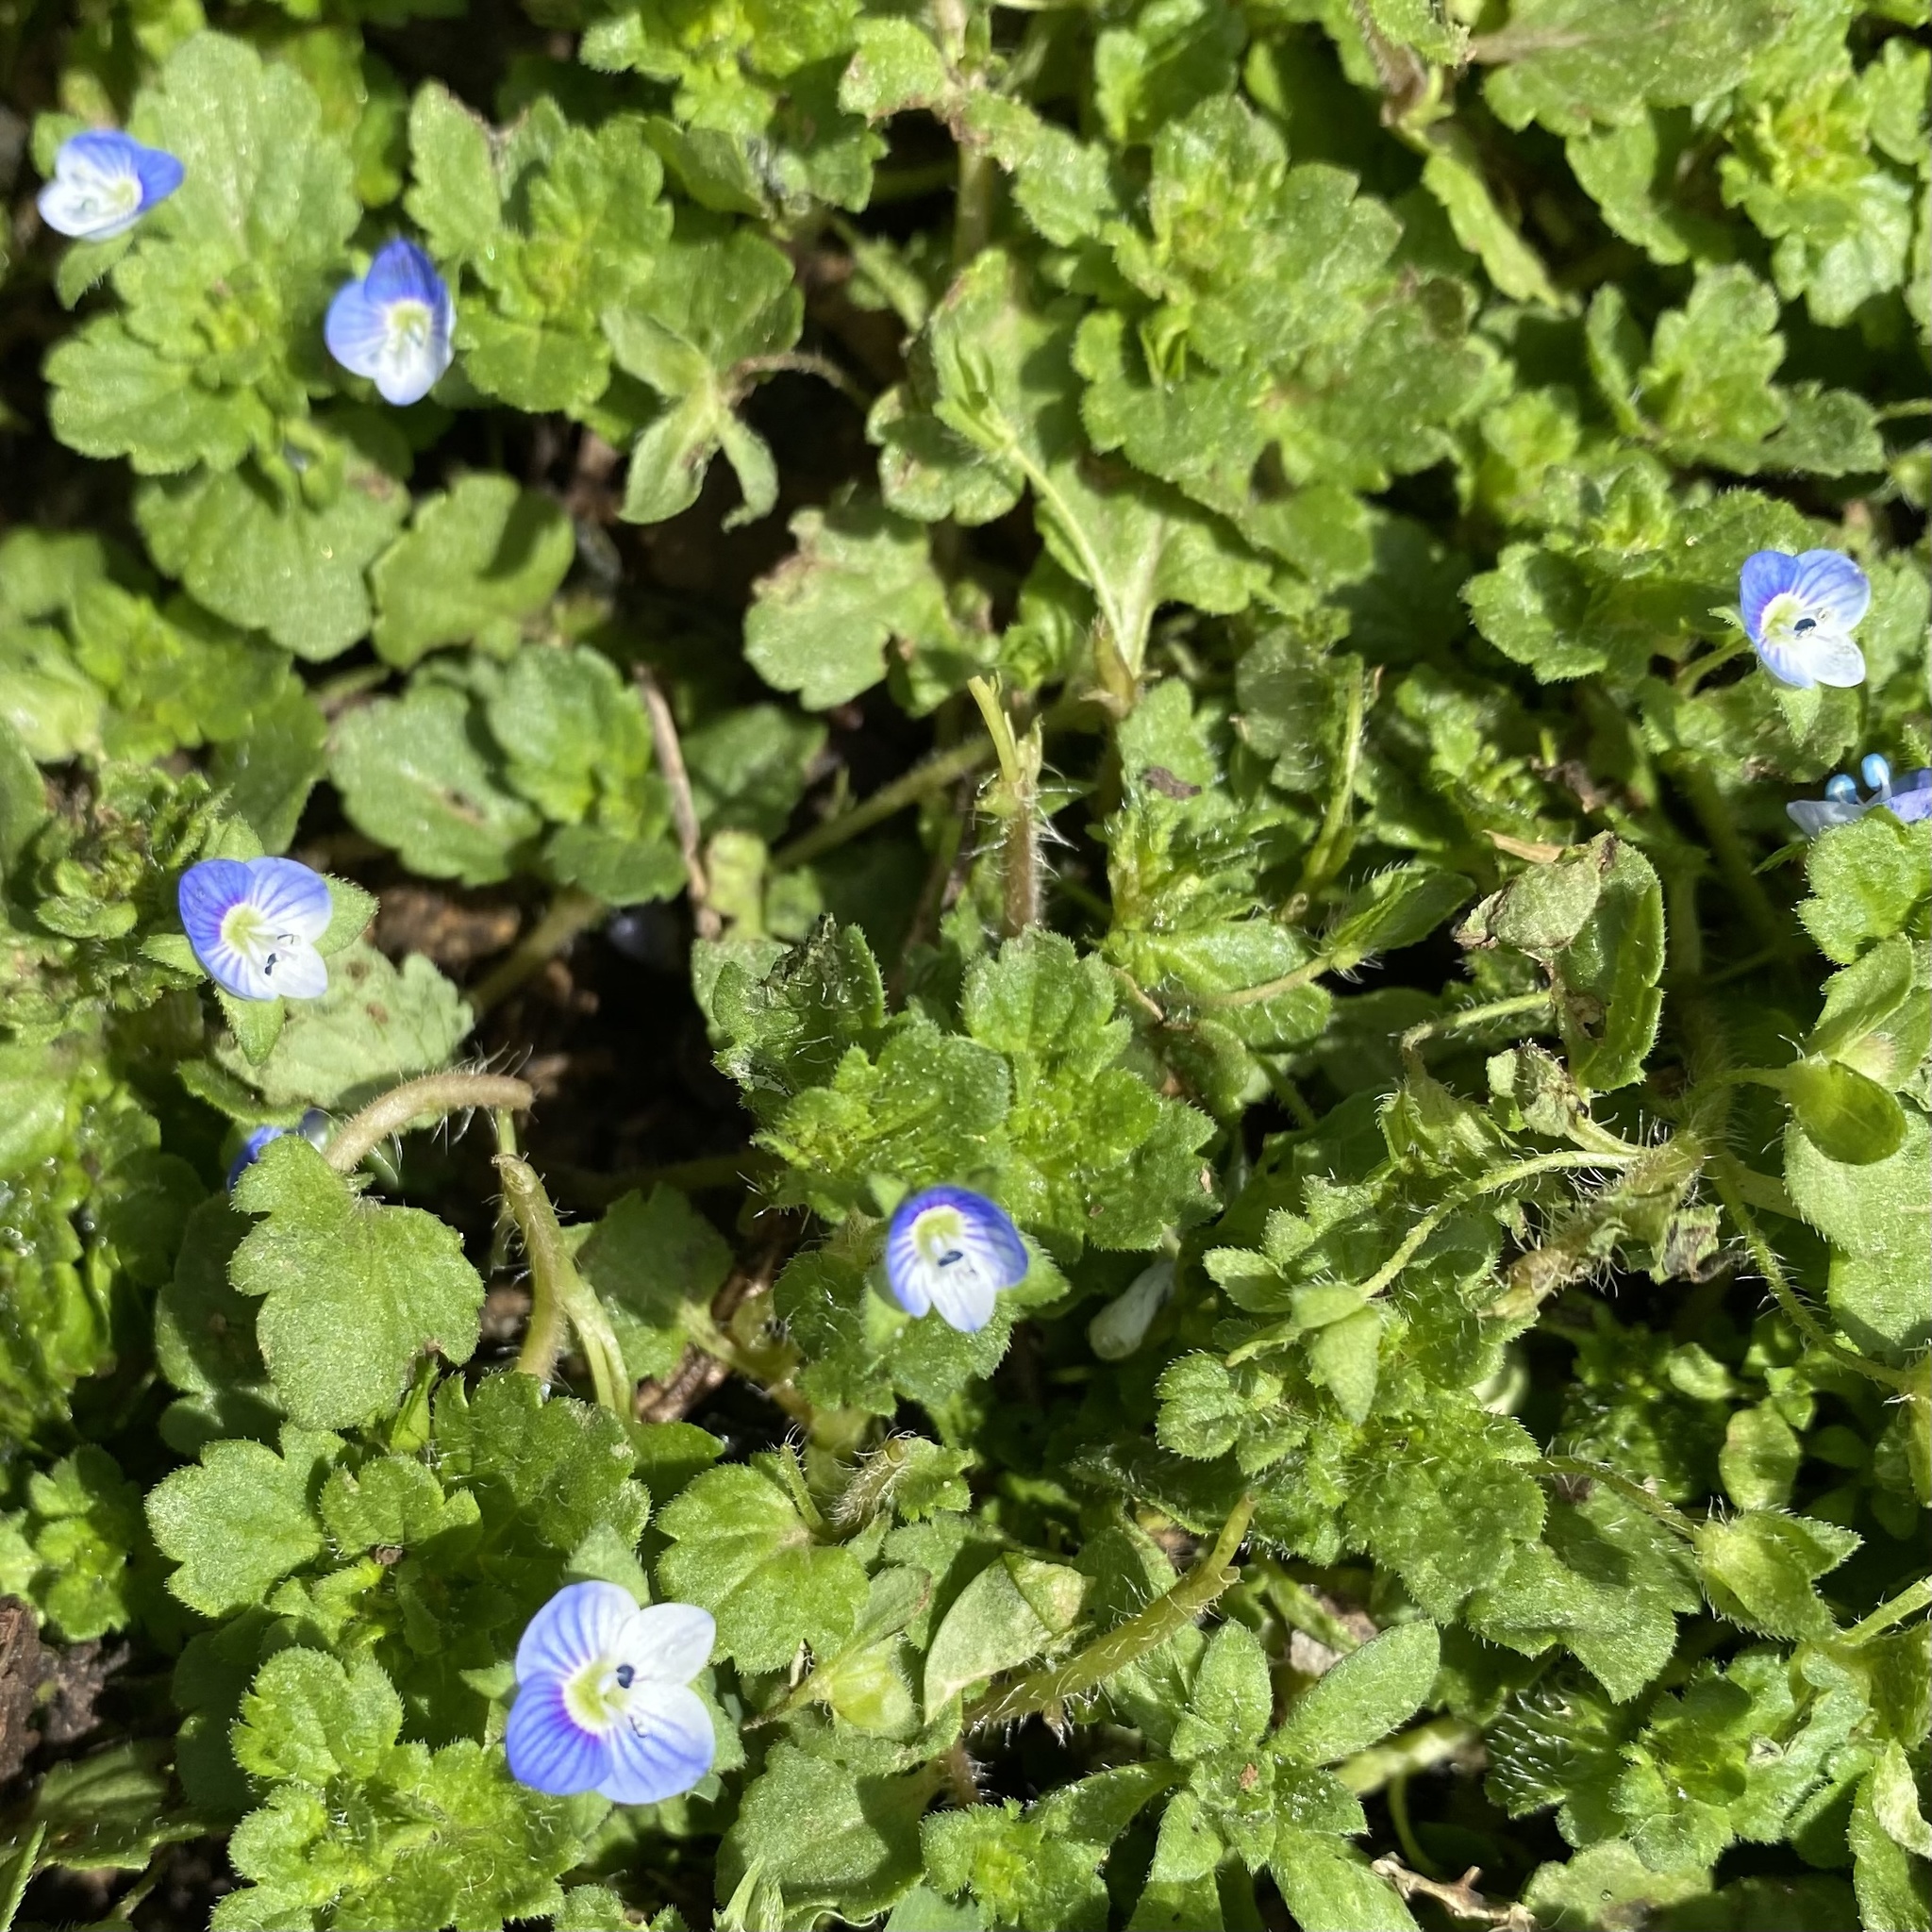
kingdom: Plantae
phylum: Tracheophyta
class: Magnoliopsida
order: Lamiales
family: Plantaginaceae
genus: Veronica
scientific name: Veronica persica
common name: Common field-speedwell
